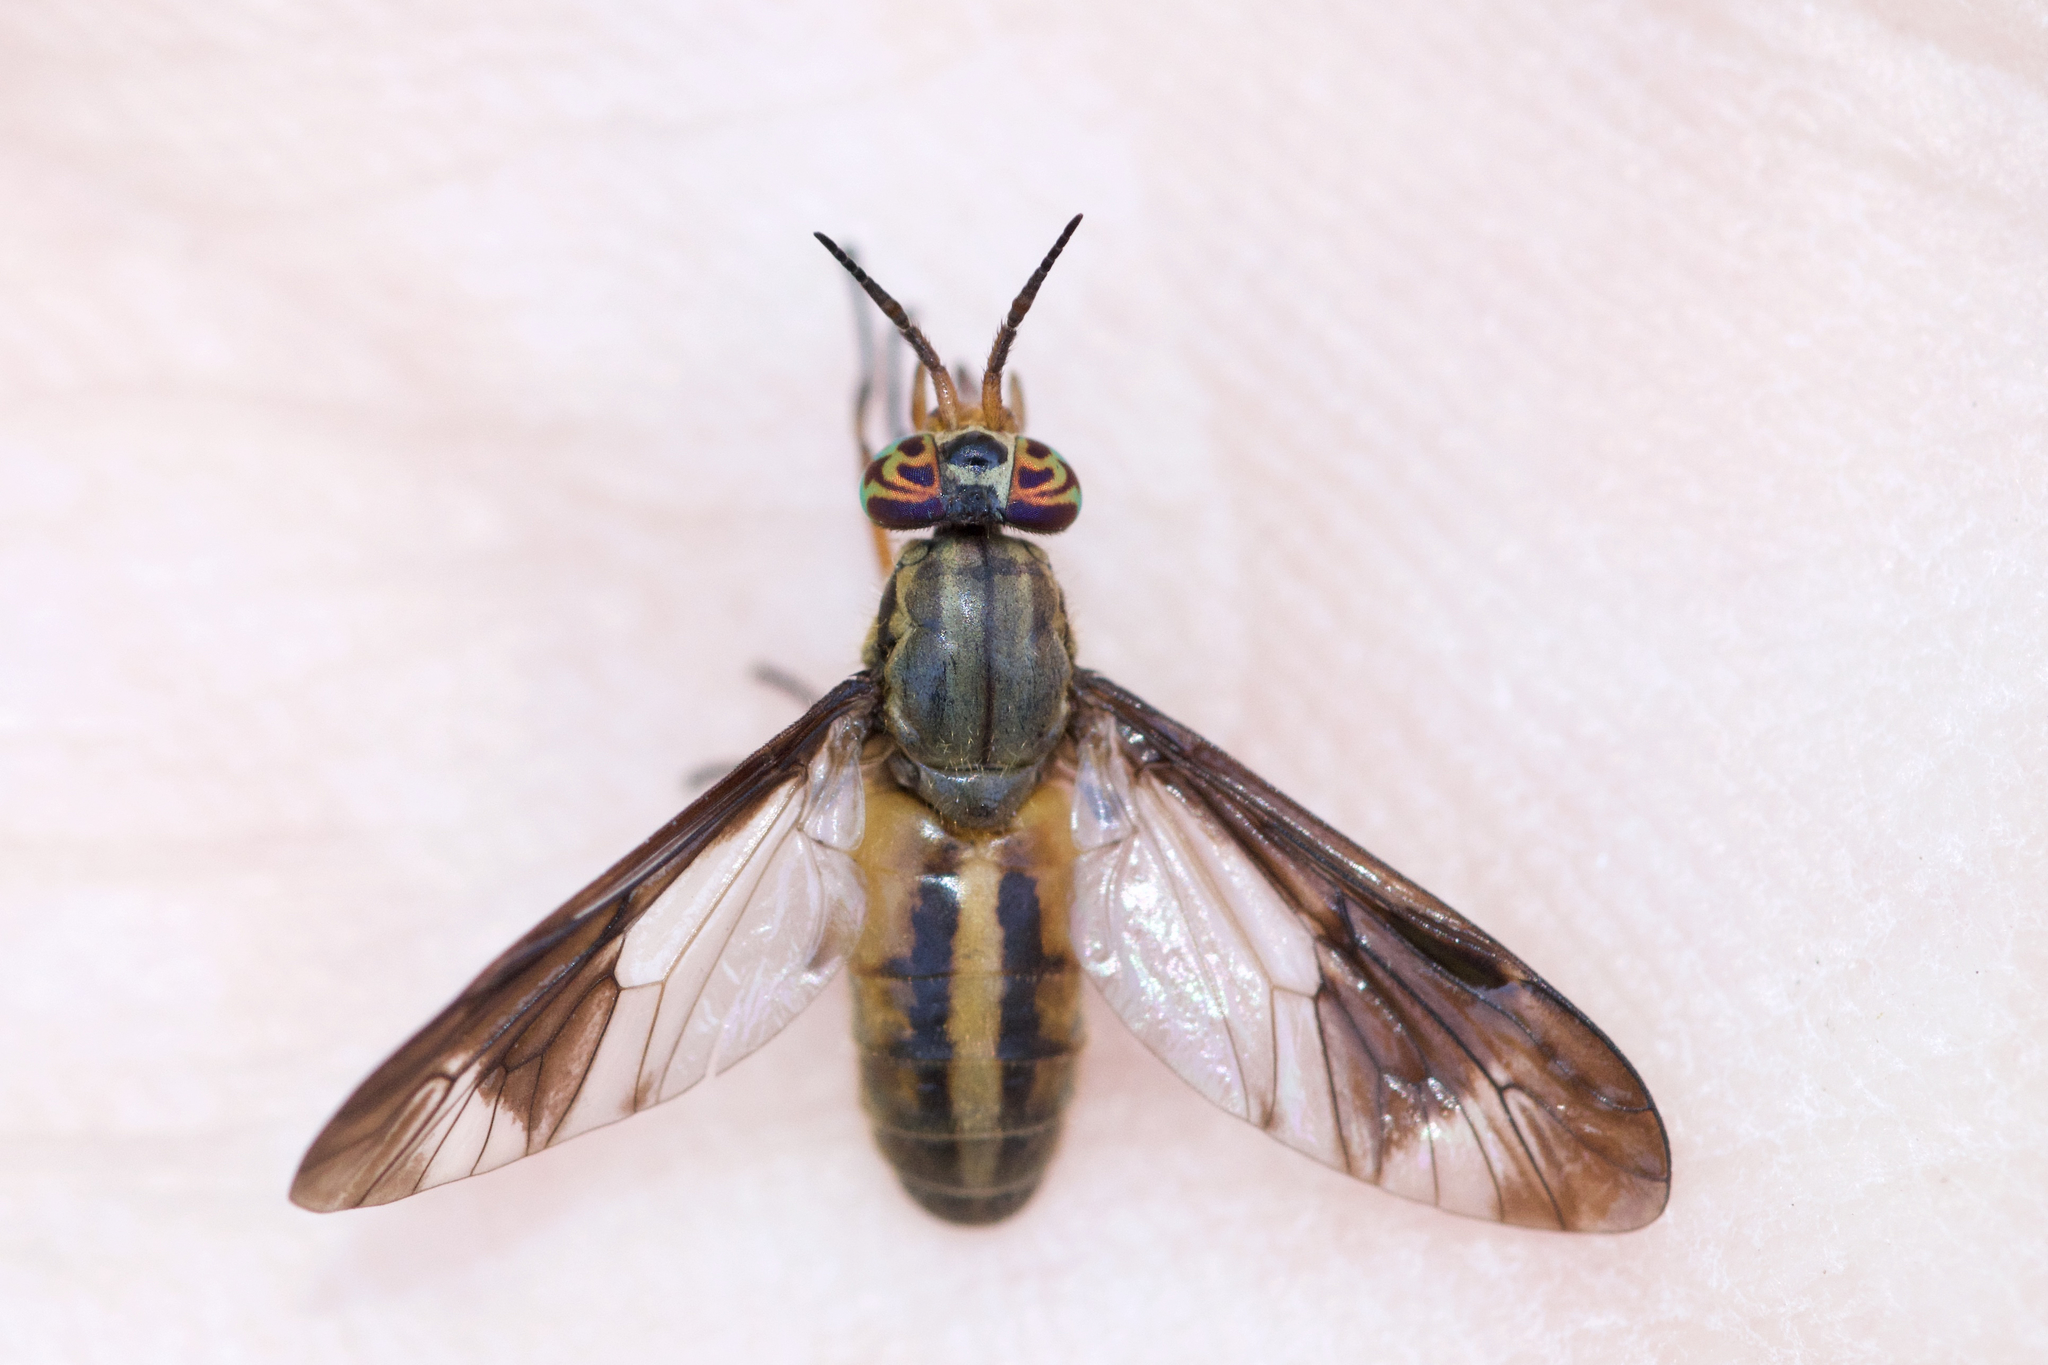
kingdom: Animalia
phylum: Arthropoda
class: Insecta
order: Diptera
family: Tabanidae
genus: Chrysops
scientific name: Chrysops macquarti
